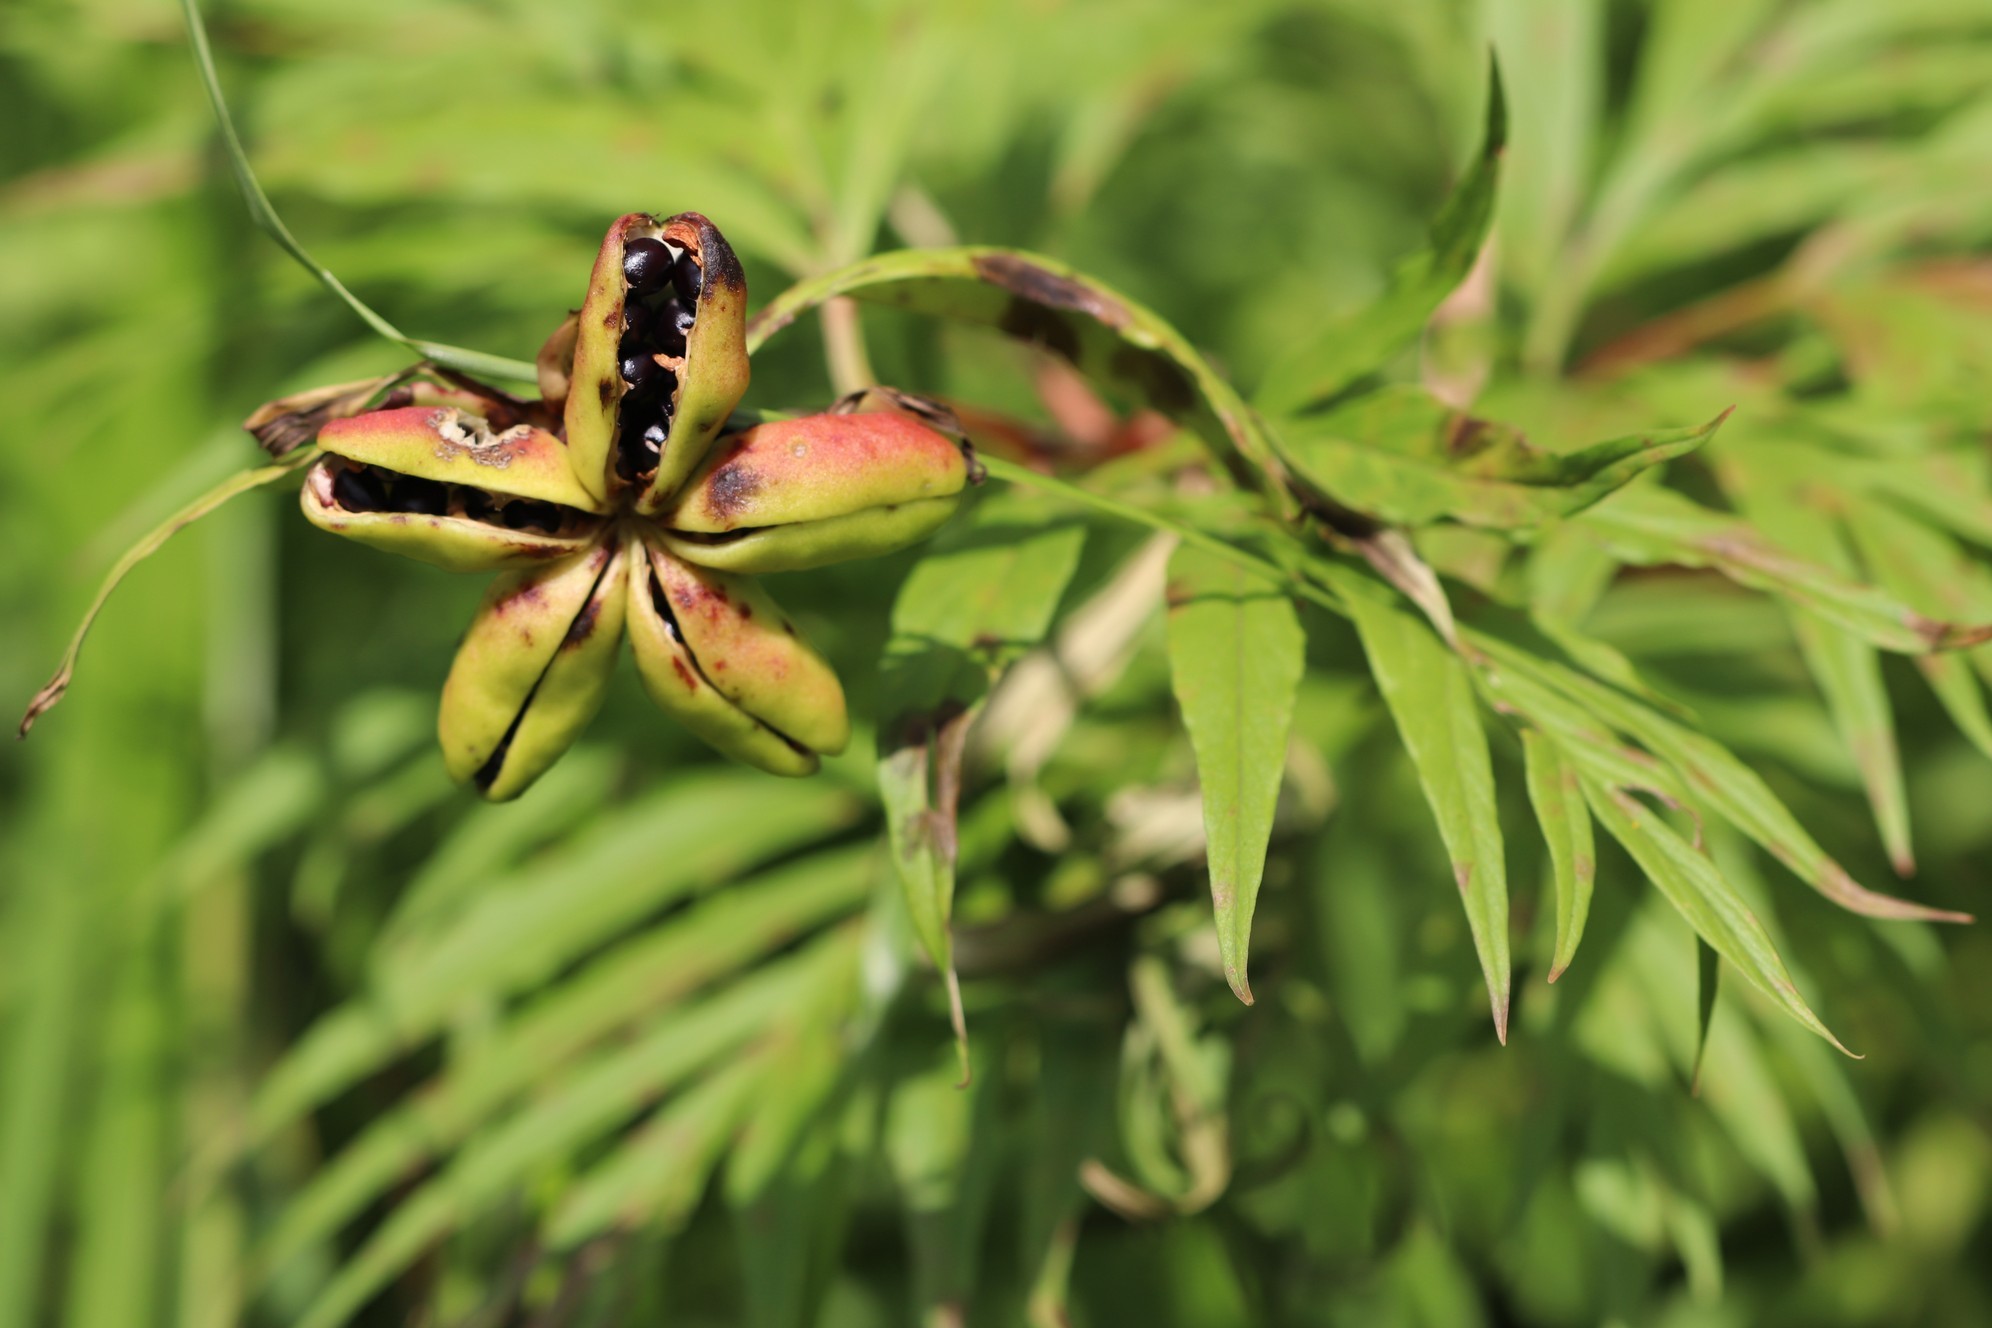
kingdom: Plantae
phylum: Tracheophyta
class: Magnoliopsida
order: Saxifragales
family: Paeoniaceae
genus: Paeonia
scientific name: Paeonia anomala
